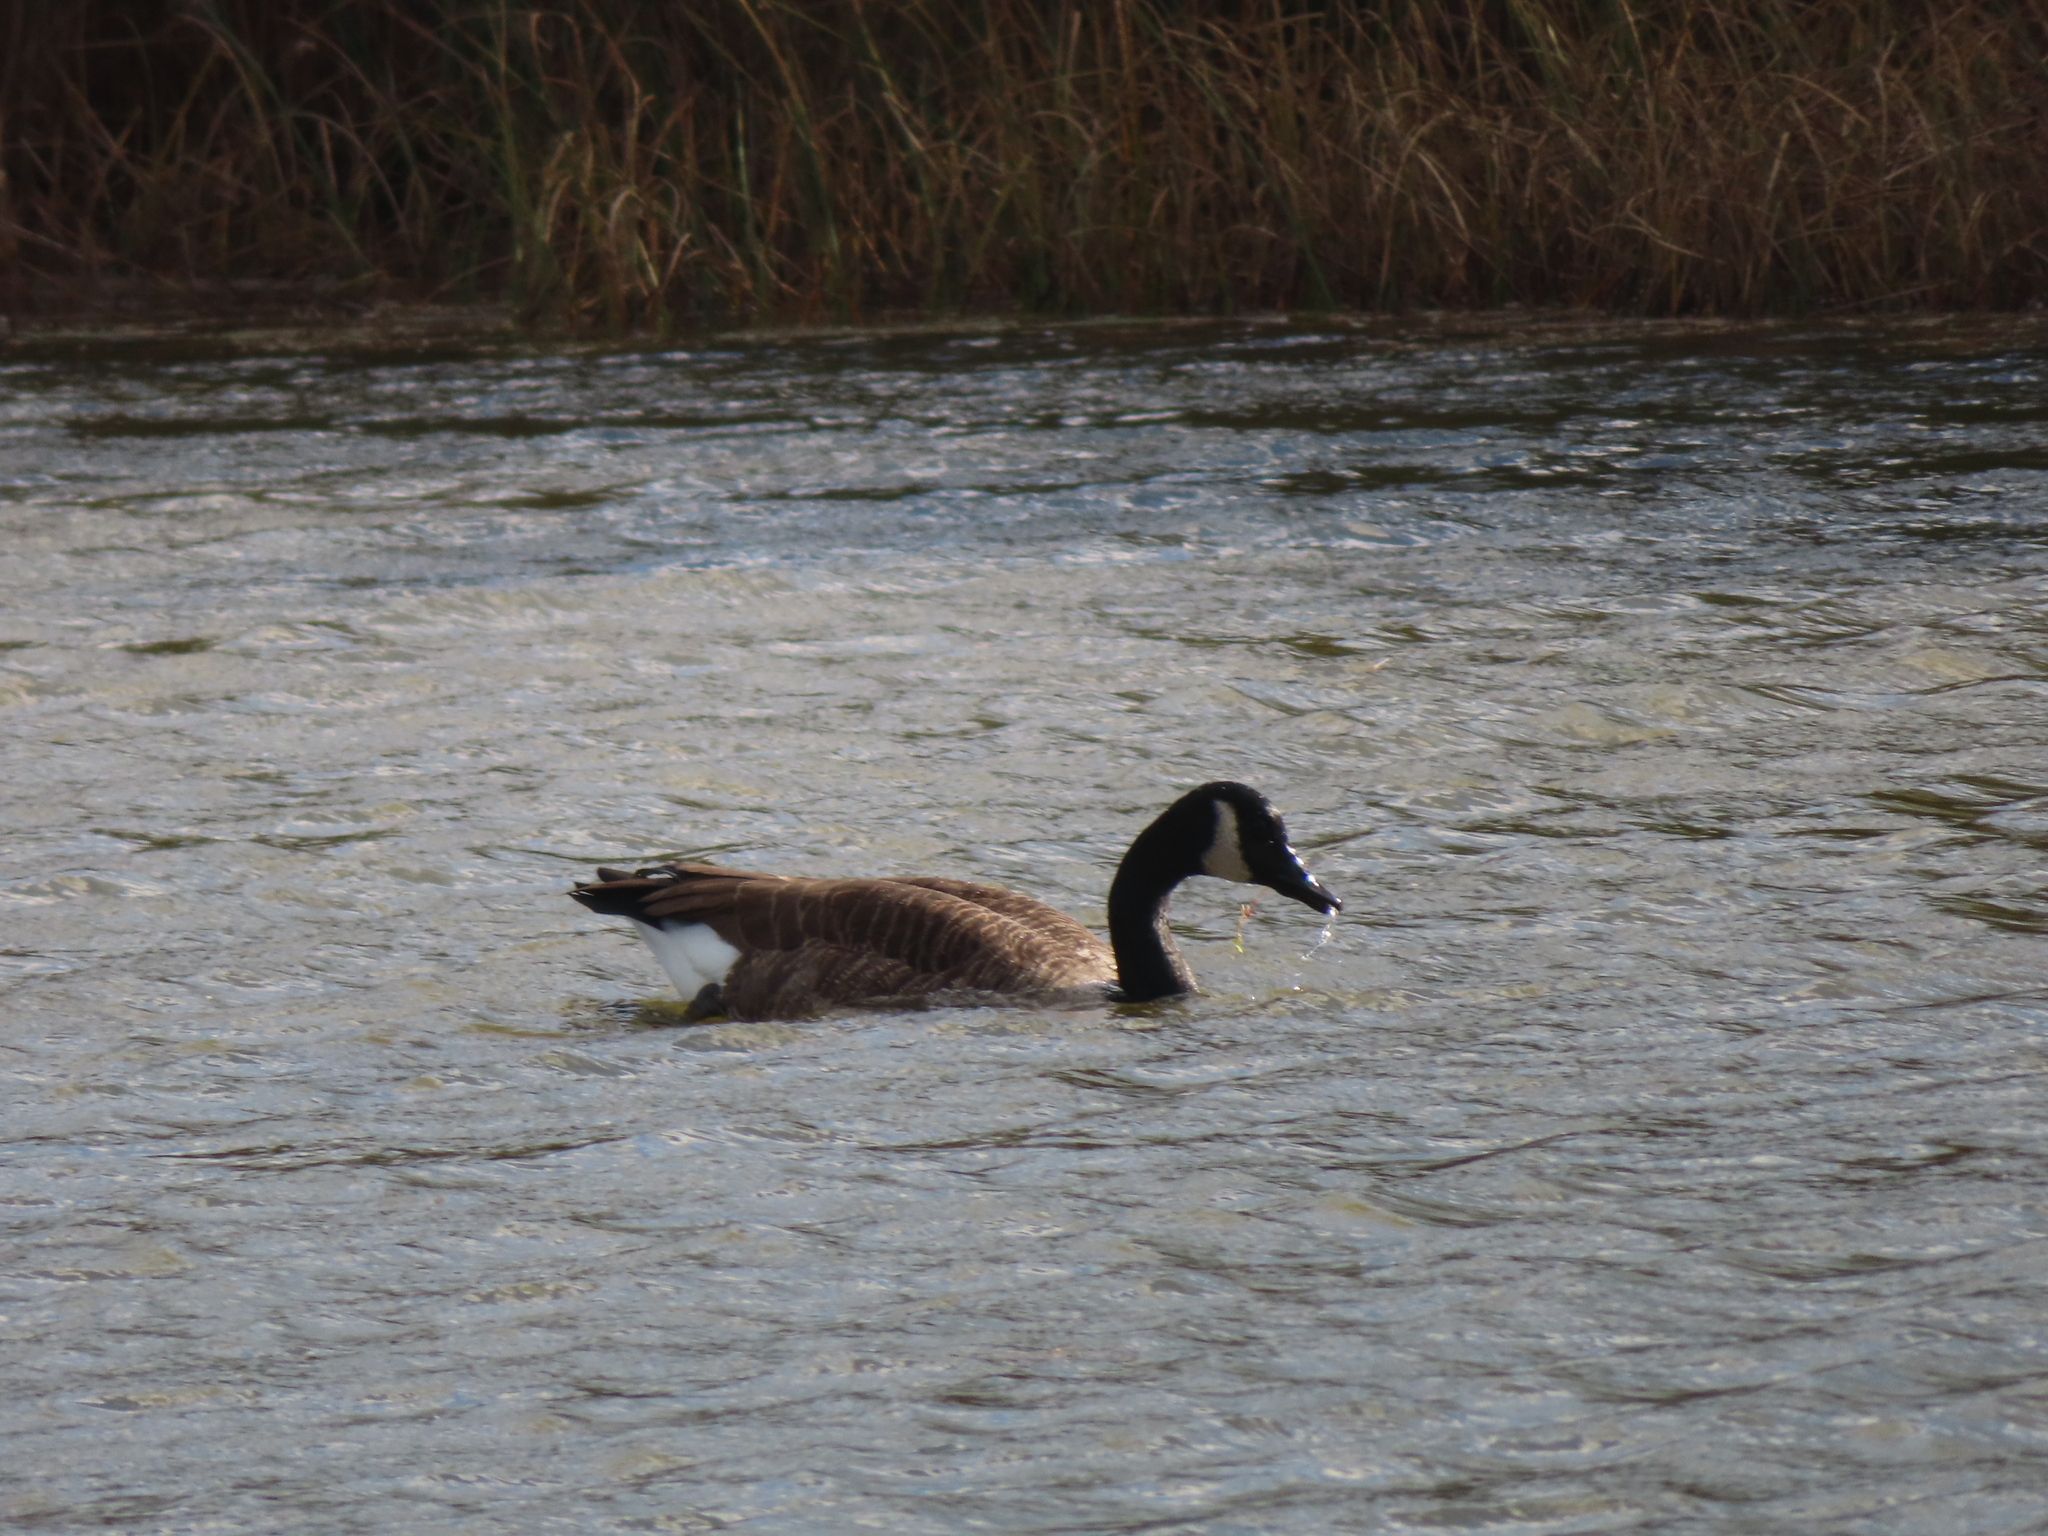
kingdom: Animalia
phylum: Chordata
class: Aves
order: Anseriformes
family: Anatidae
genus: Branta
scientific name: Branta canadensis
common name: Canada goose
